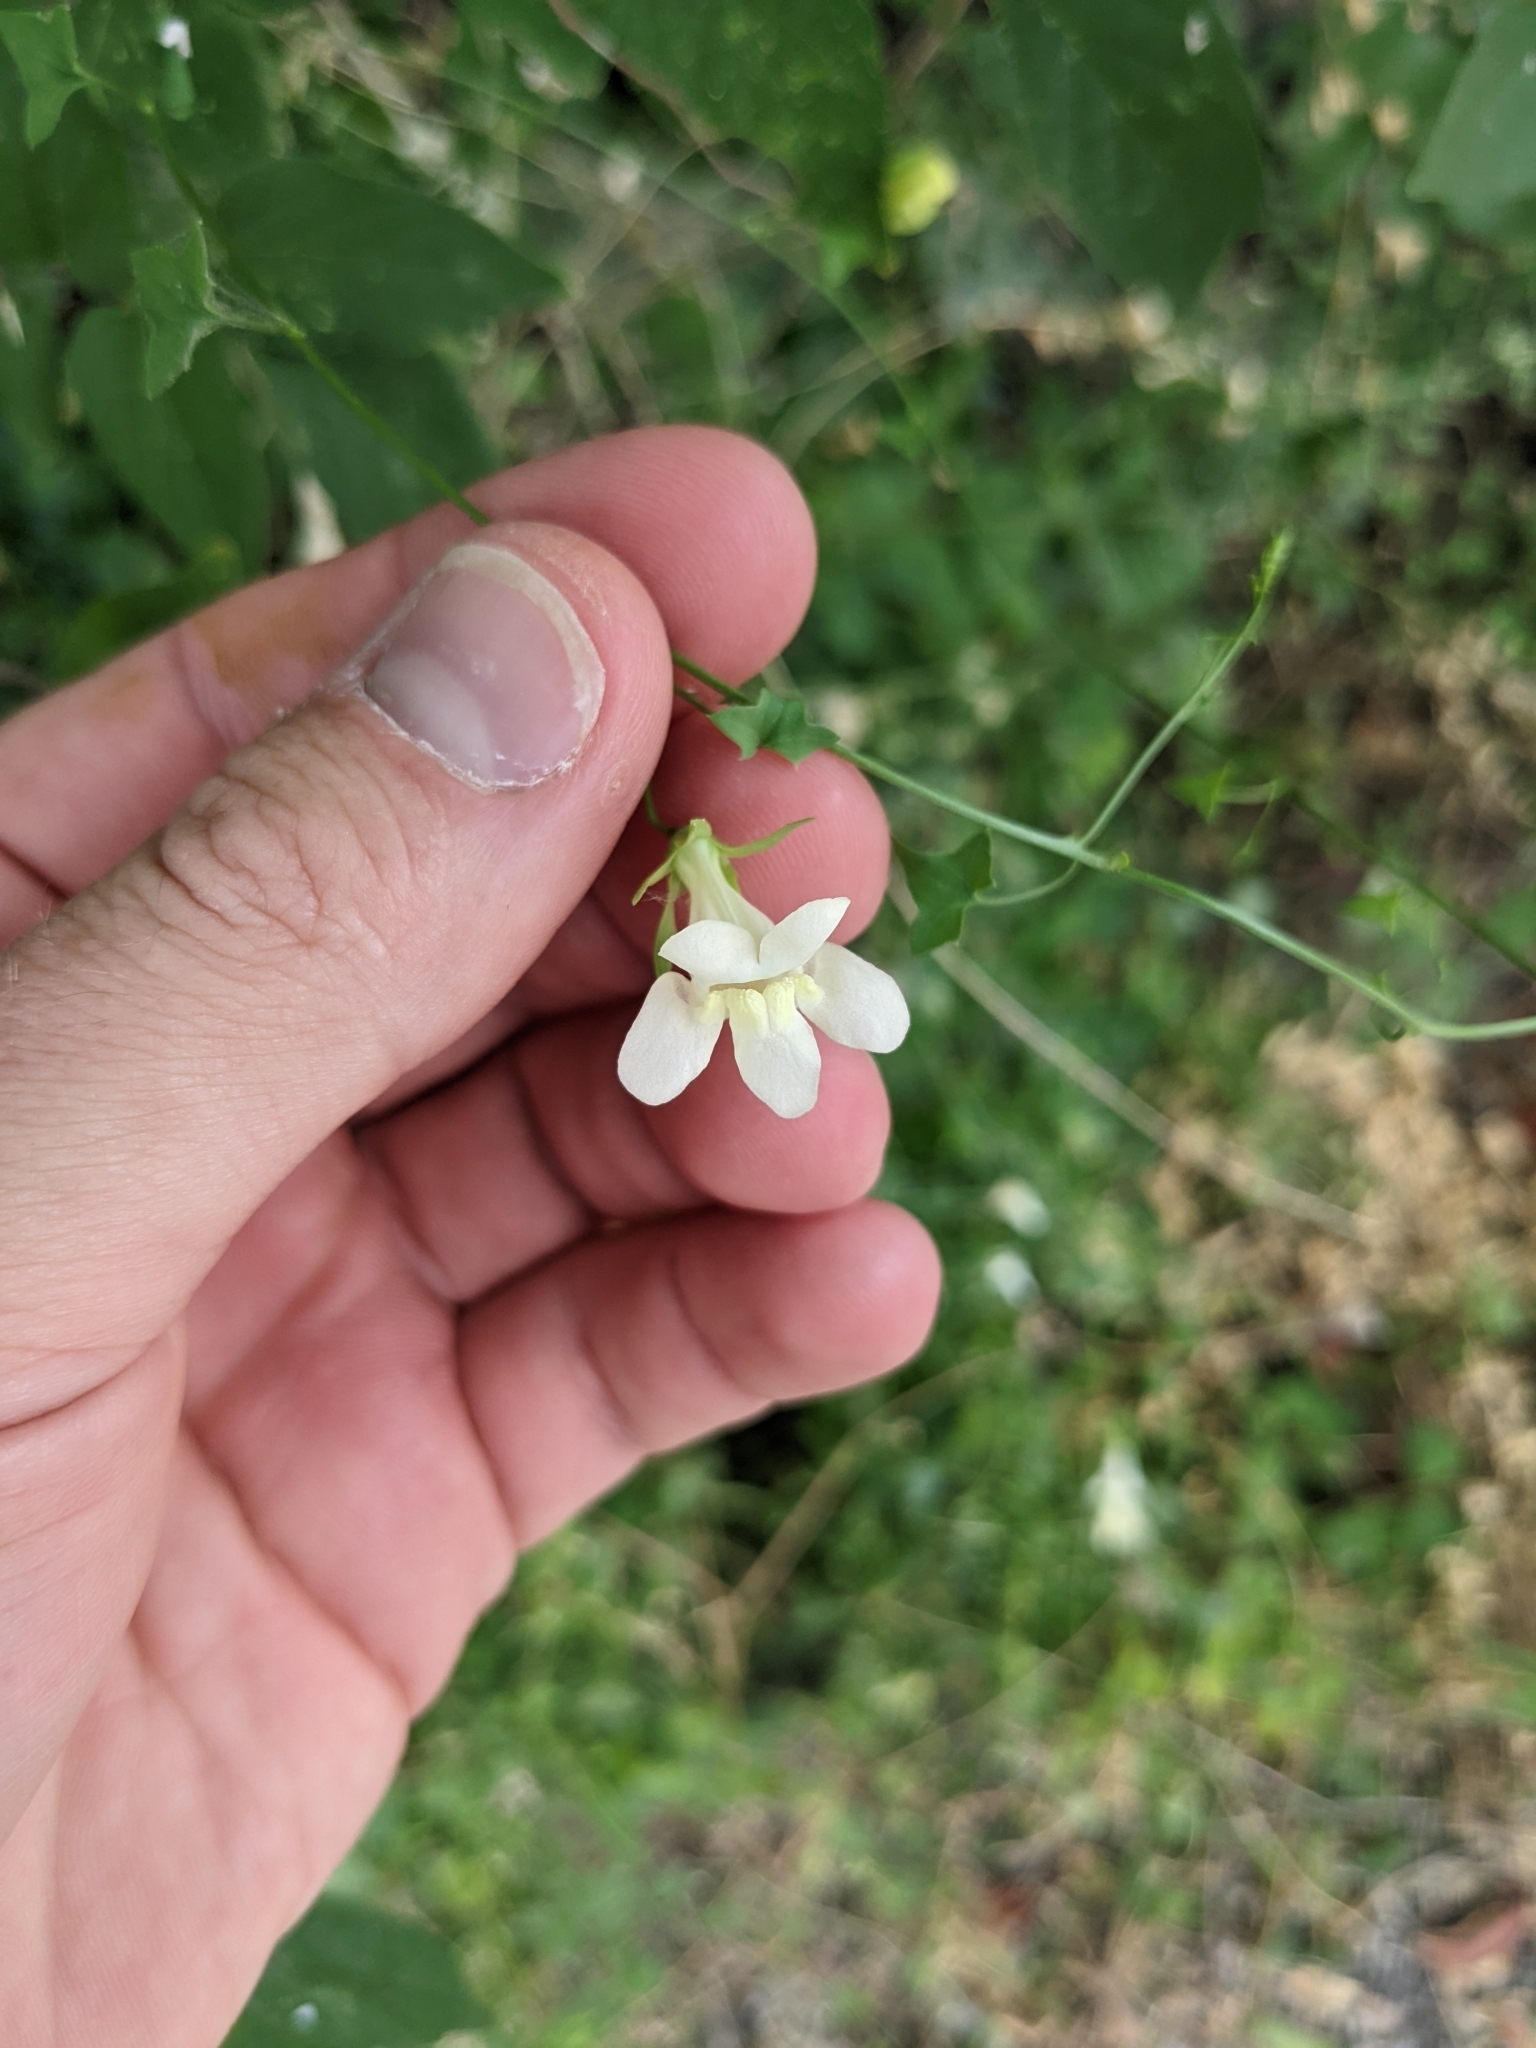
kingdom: Plantae
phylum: Tracheophyta
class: Magnoliopsida
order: Lamiales
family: Plantaginaceae
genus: Maurandella
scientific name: Maurandella antirrhiniflora
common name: Violet twining-snapdragon
